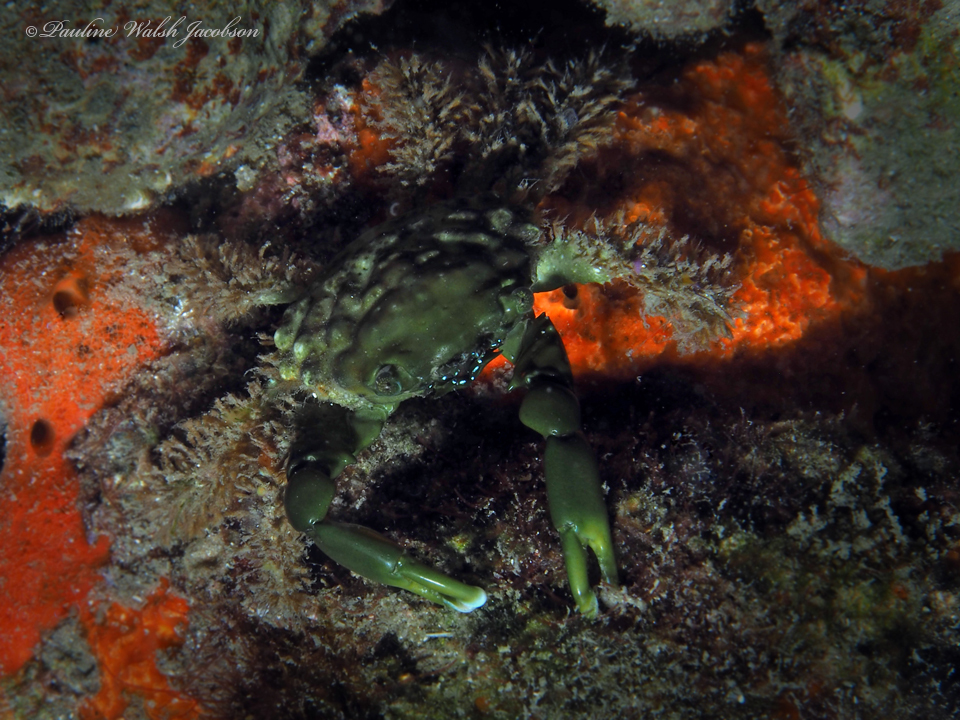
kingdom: Animalia
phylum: Arthropoda
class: Malacostraca
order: Decapoda
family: Mithracidae
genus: Mithraculus
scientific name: Mithraculus sculptus
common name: Sculptured spider crab
